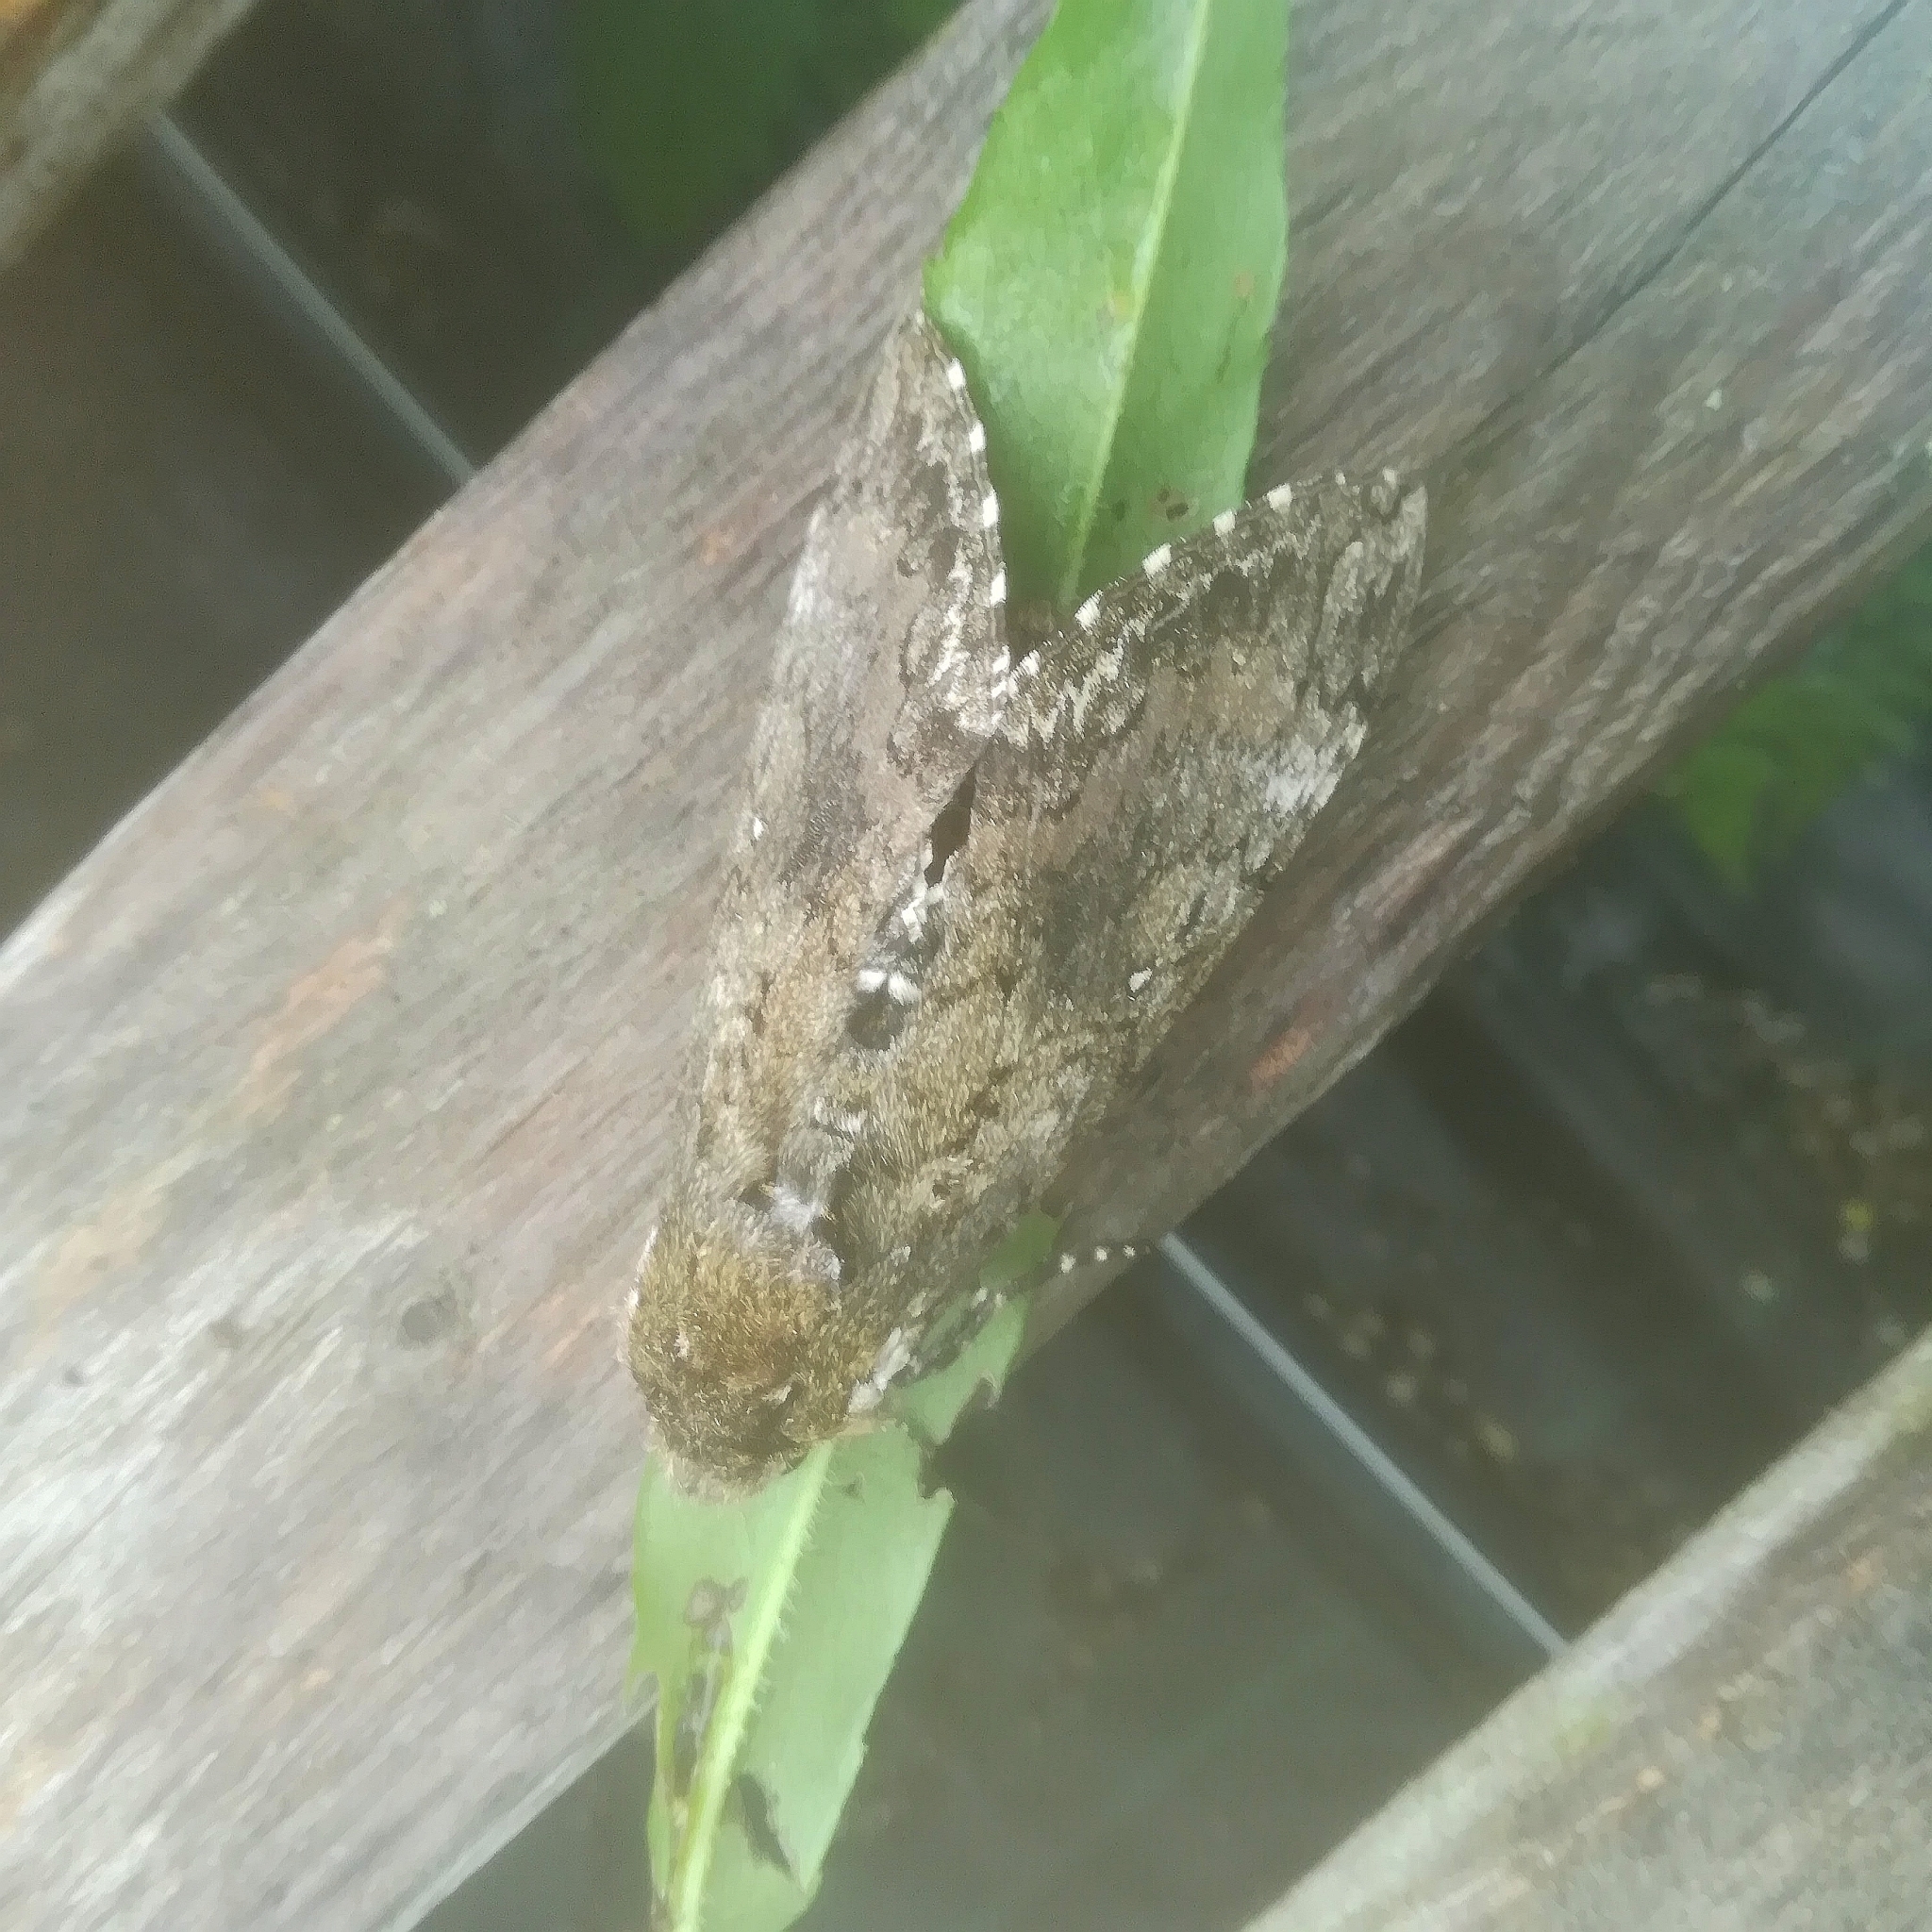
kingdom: Animalia
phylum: Arthropoda
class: Insecta
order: Lepidoptera
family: Sphingidae
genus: Manduca
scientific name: Manduca sexta
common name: Carolina sphinx
